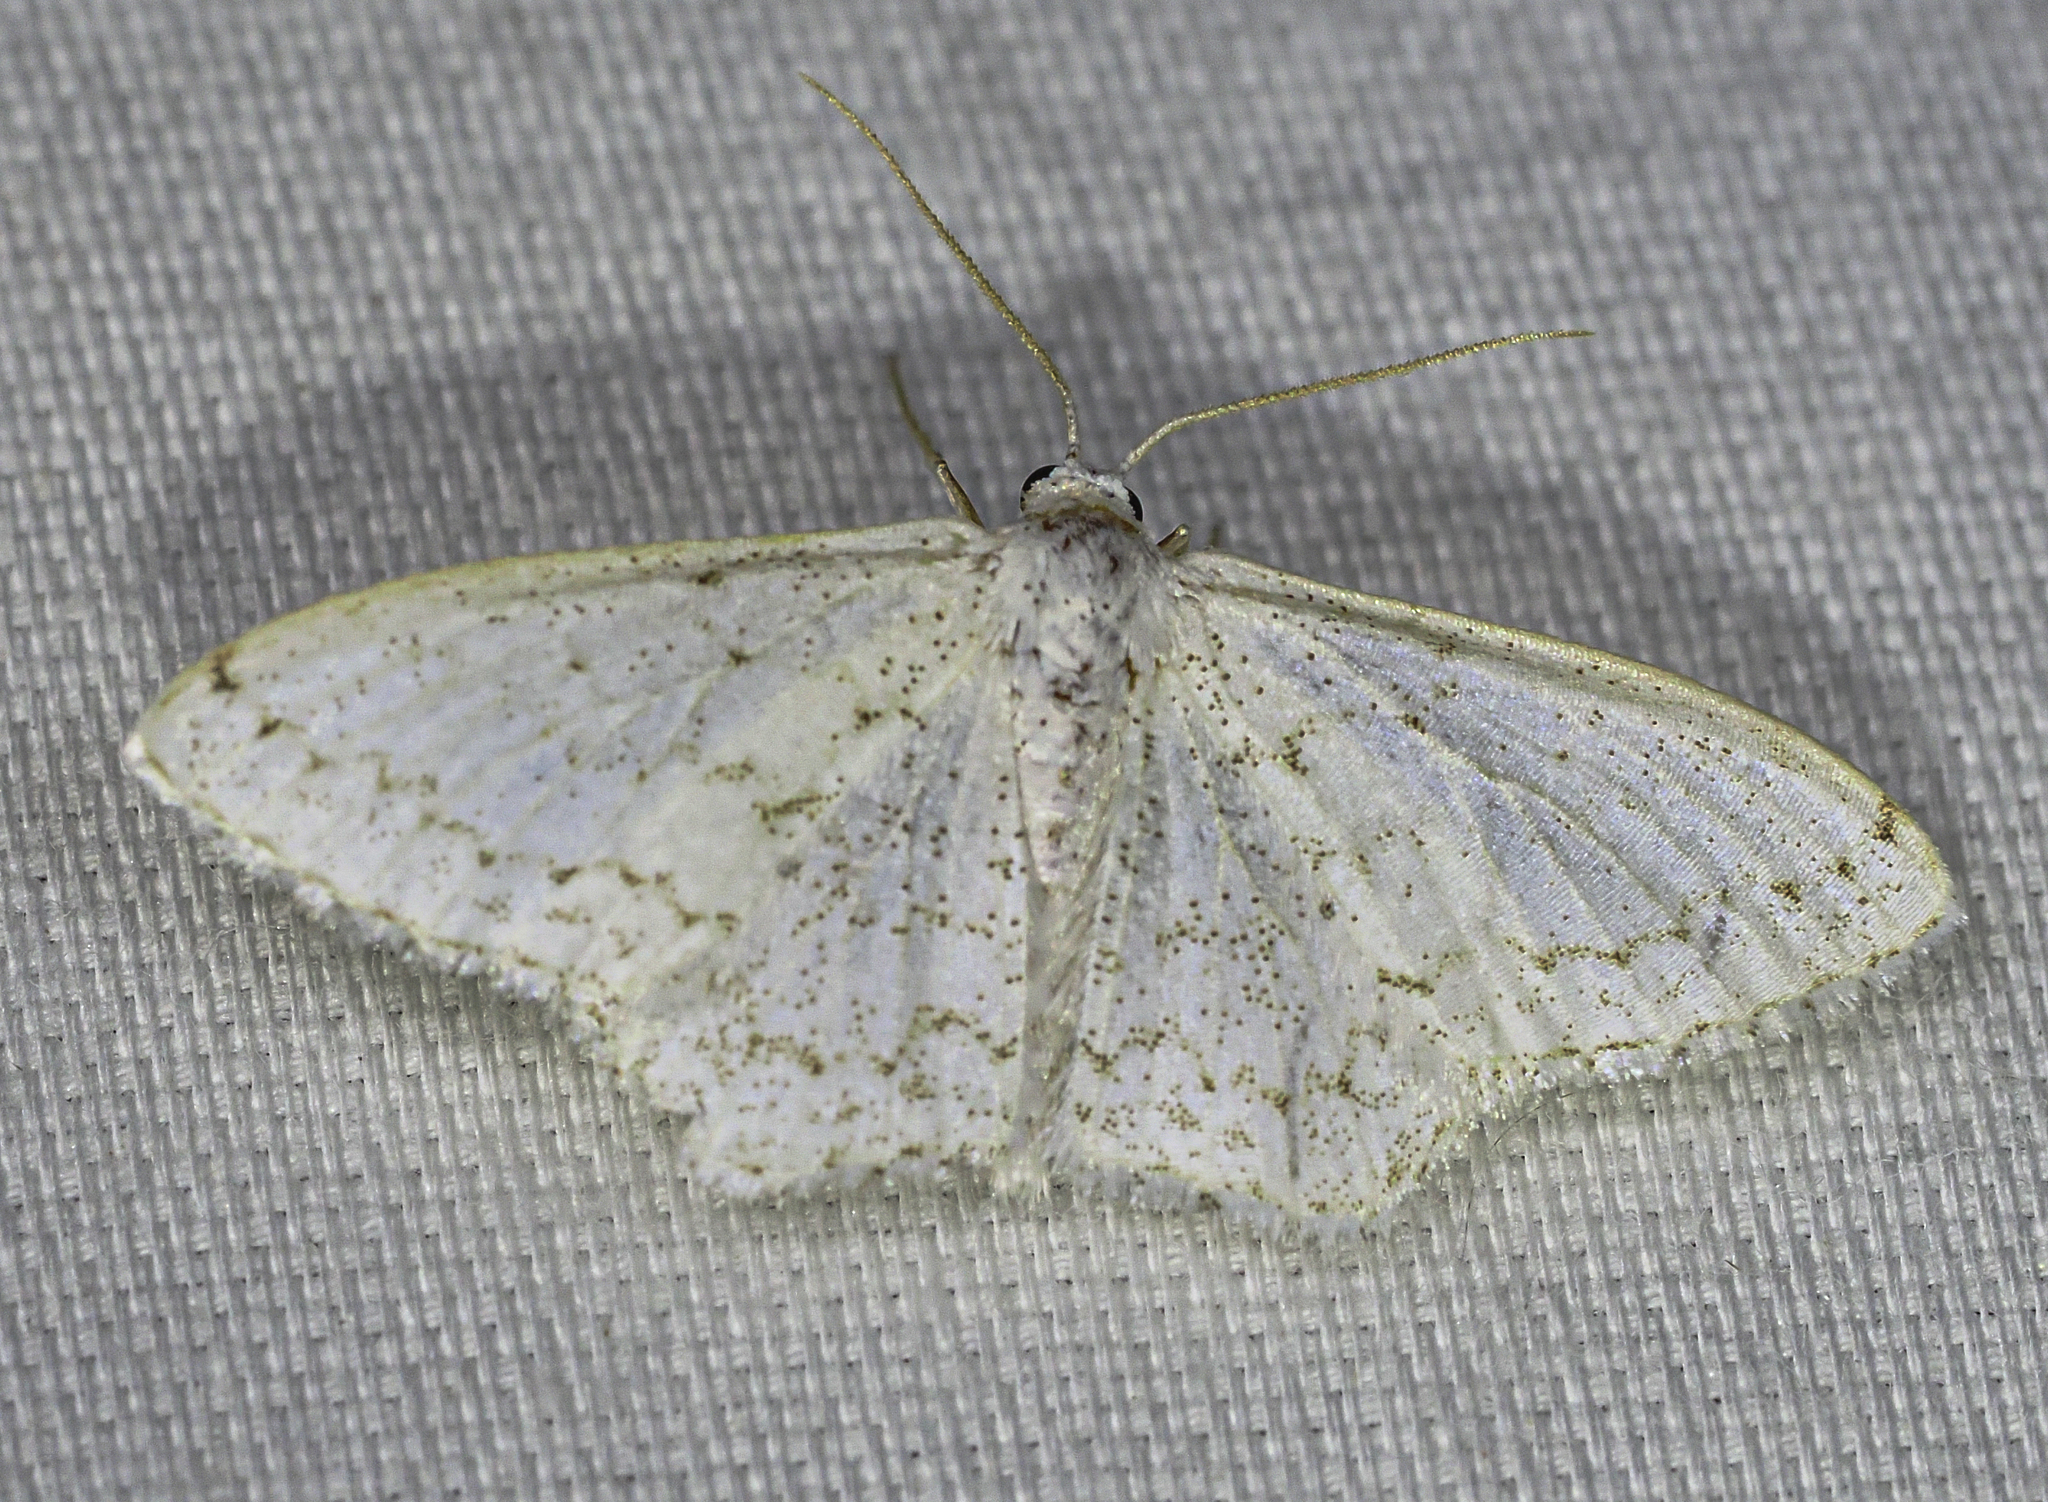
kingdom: Animalia
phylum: Arthropoda
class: Insecta
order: Lepidoptera
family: Geometridae
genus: Idaea
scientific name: Idaea tacturata
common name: Dot-lined wave
